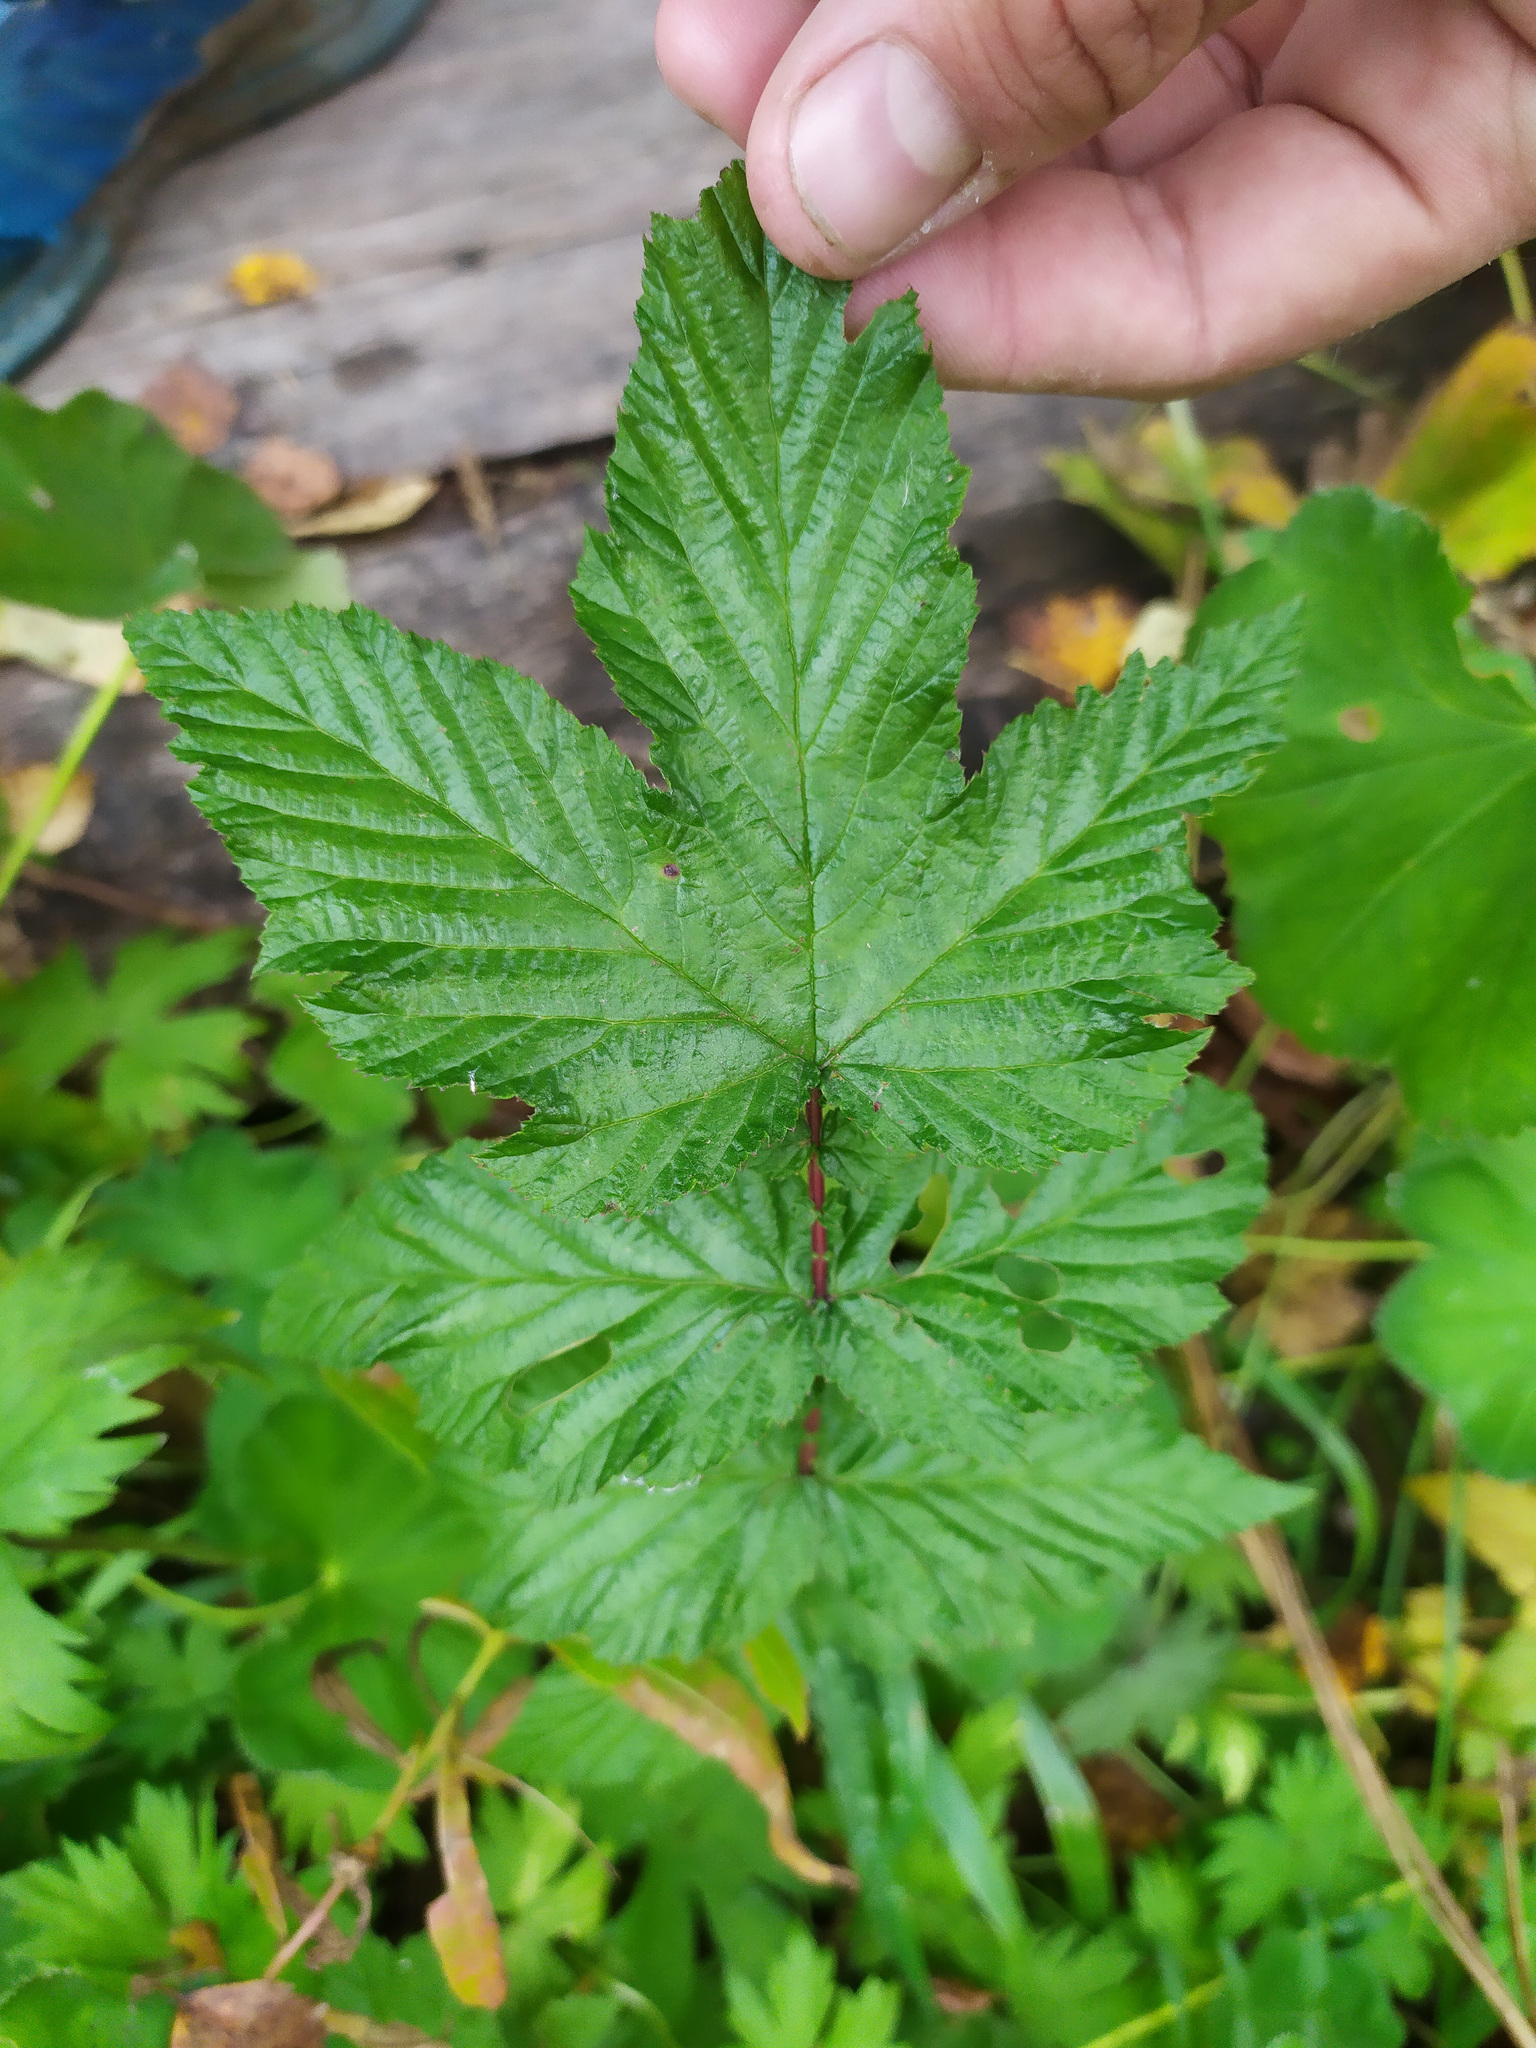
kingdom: Plantae
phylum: Tracheophyta
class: Magnoliopsida
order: Rosales
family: Rosaceae
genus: Filipendula
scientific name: Filipendula ulmaria
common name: Meadowsweet
